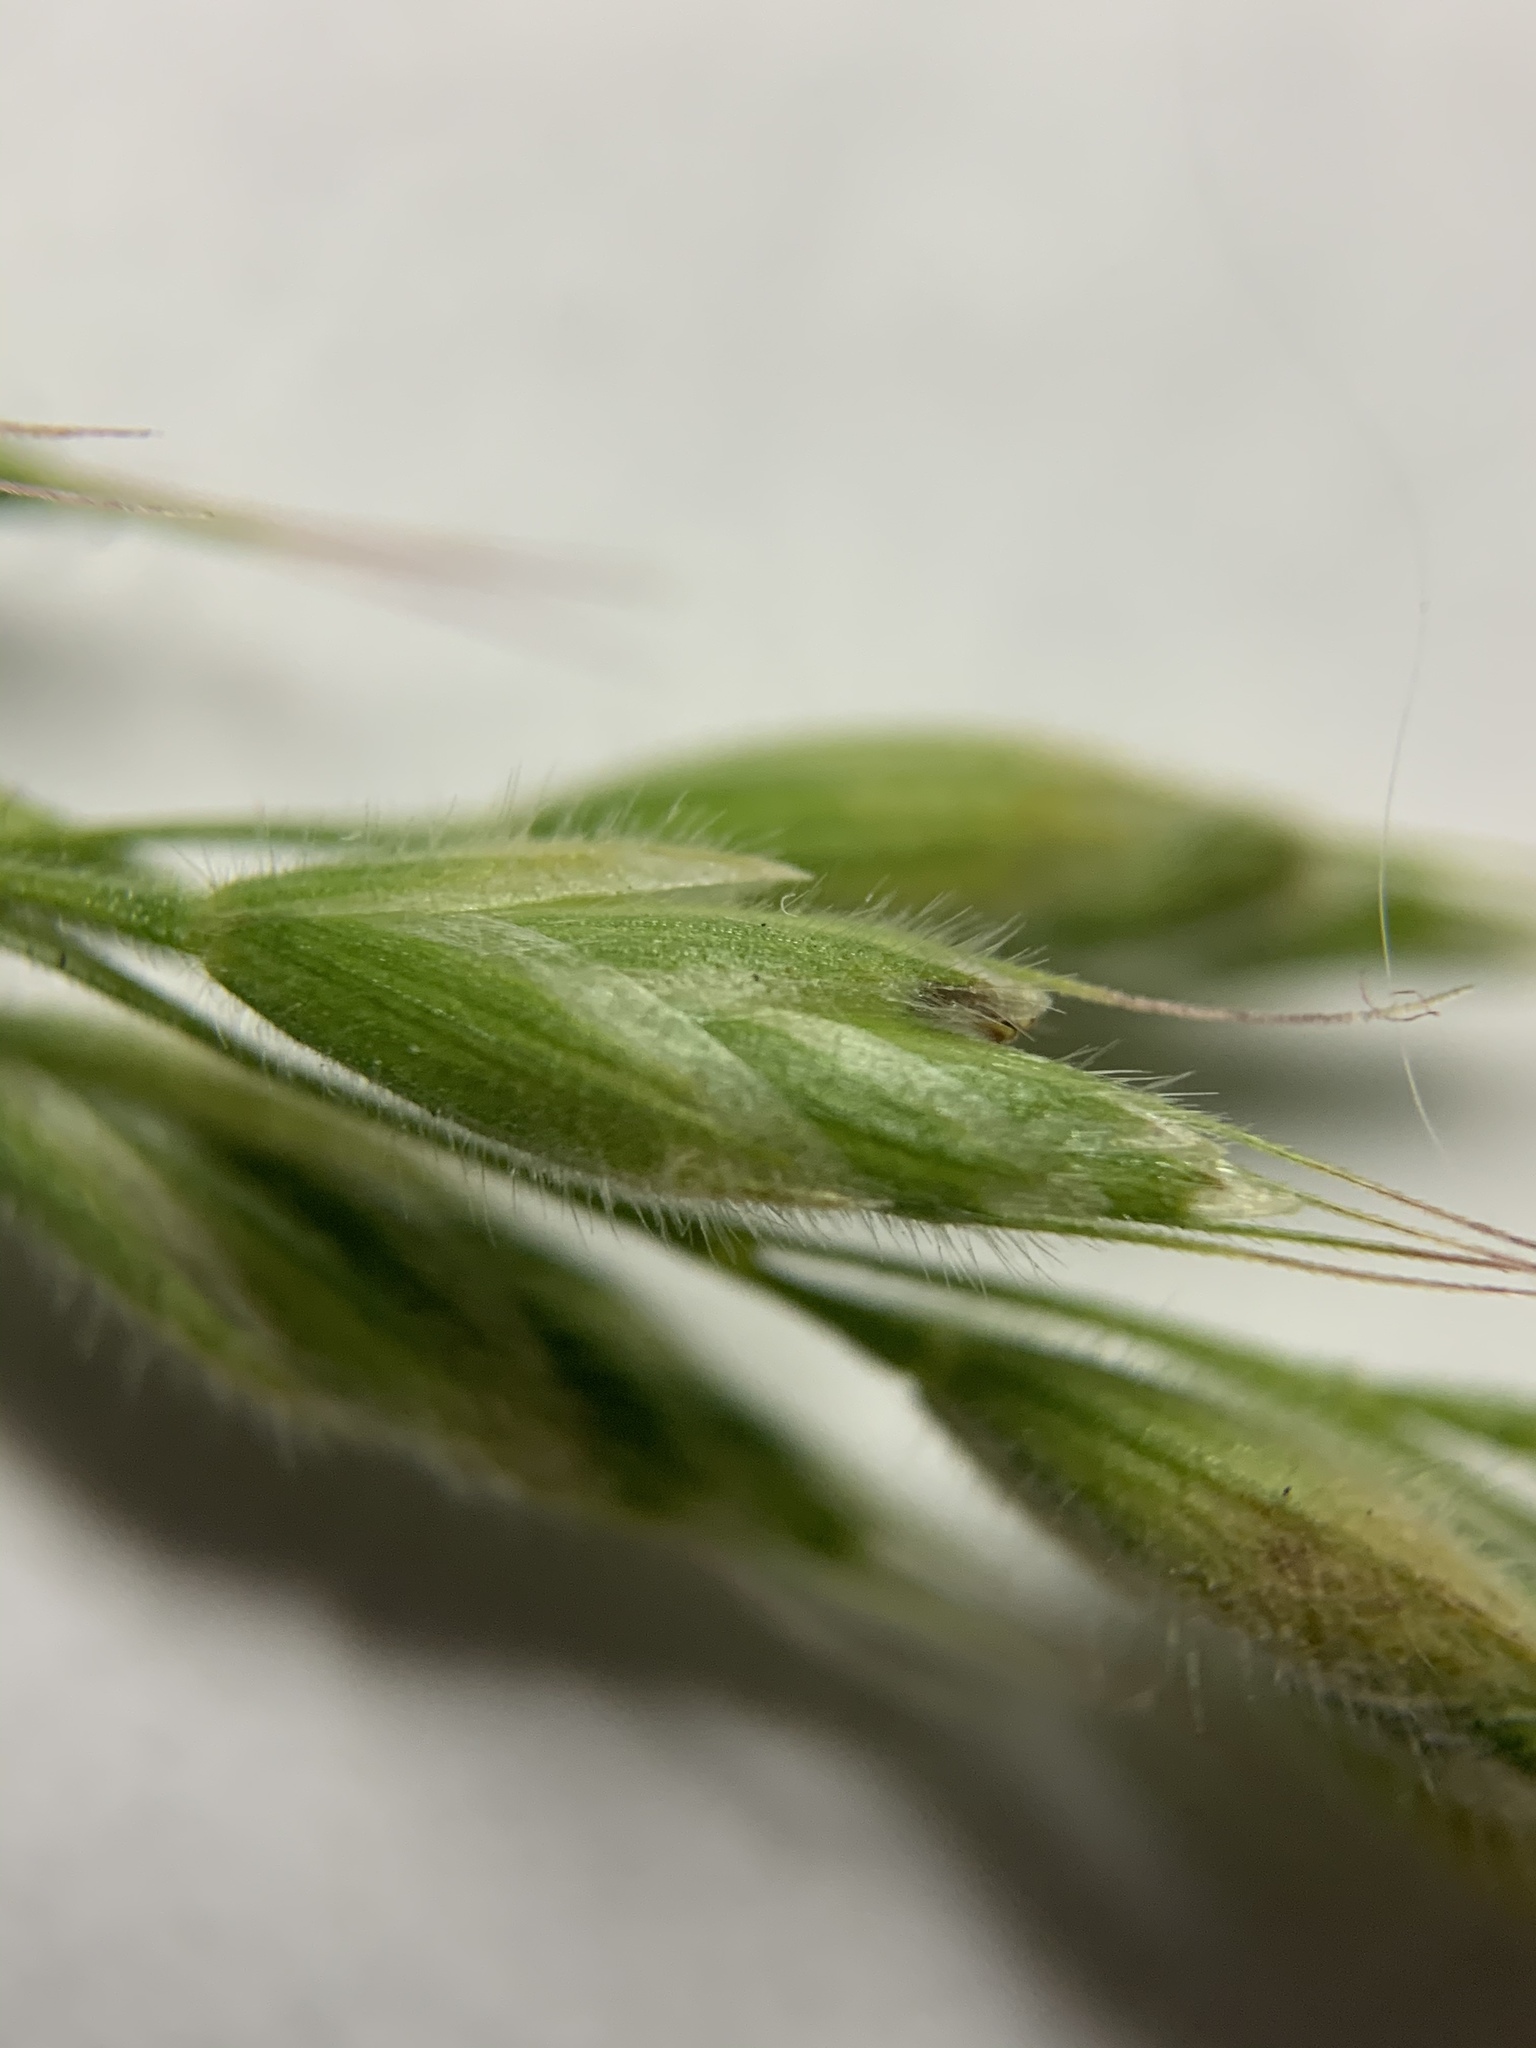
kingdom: Plantae
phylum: Tracheophyta
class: Liliopsida
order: Poales
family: Poaceae
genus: Bromus
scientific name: Bromus hordeaceus
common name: Soft brome
